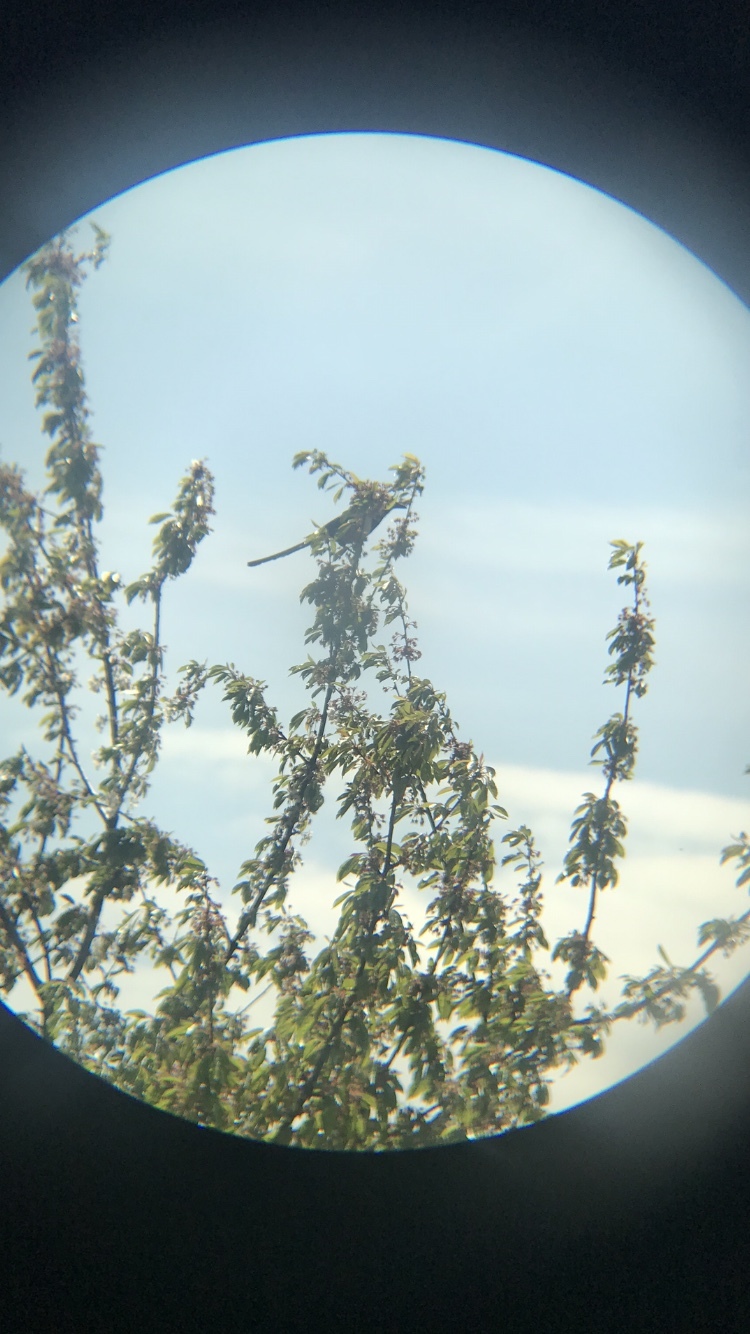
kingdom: Animalia
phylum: Chordata
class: Aves
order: Passeriformes
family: Corvidae
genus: Pica
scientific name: Pica pica
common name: Eurasian magpie
